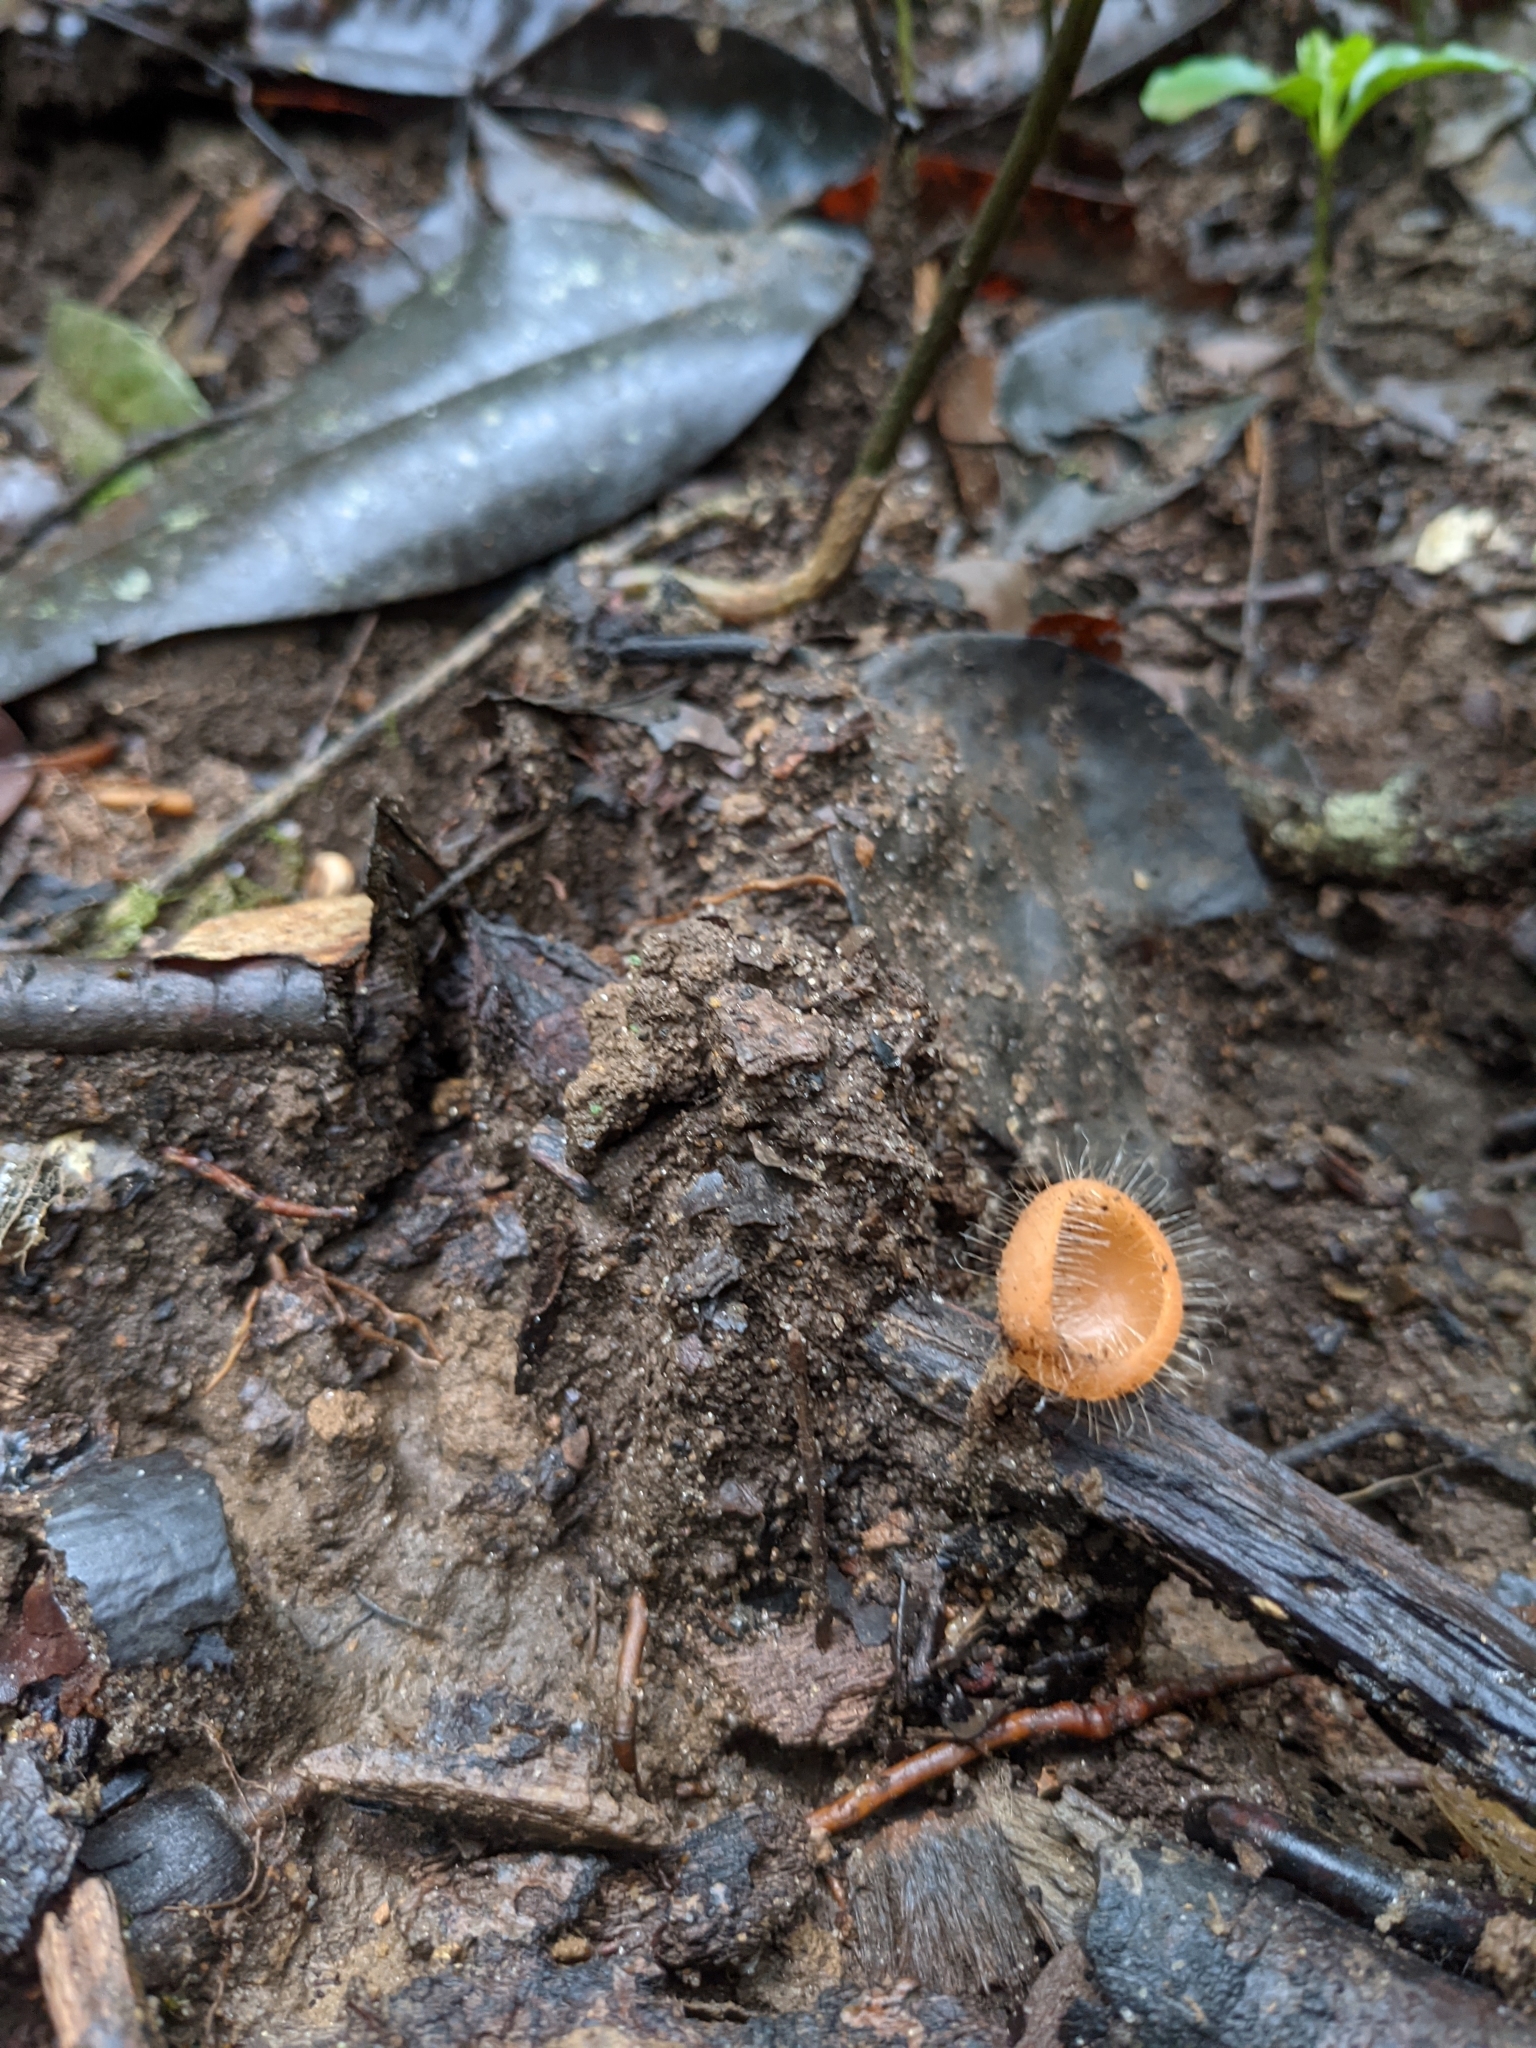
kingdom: Fungi
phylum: Ascomycota
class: Pezizomycetes
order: Pezizales
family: Sarcoscyphaceae
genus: Cookeina
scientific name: Cookeina tricholoma
